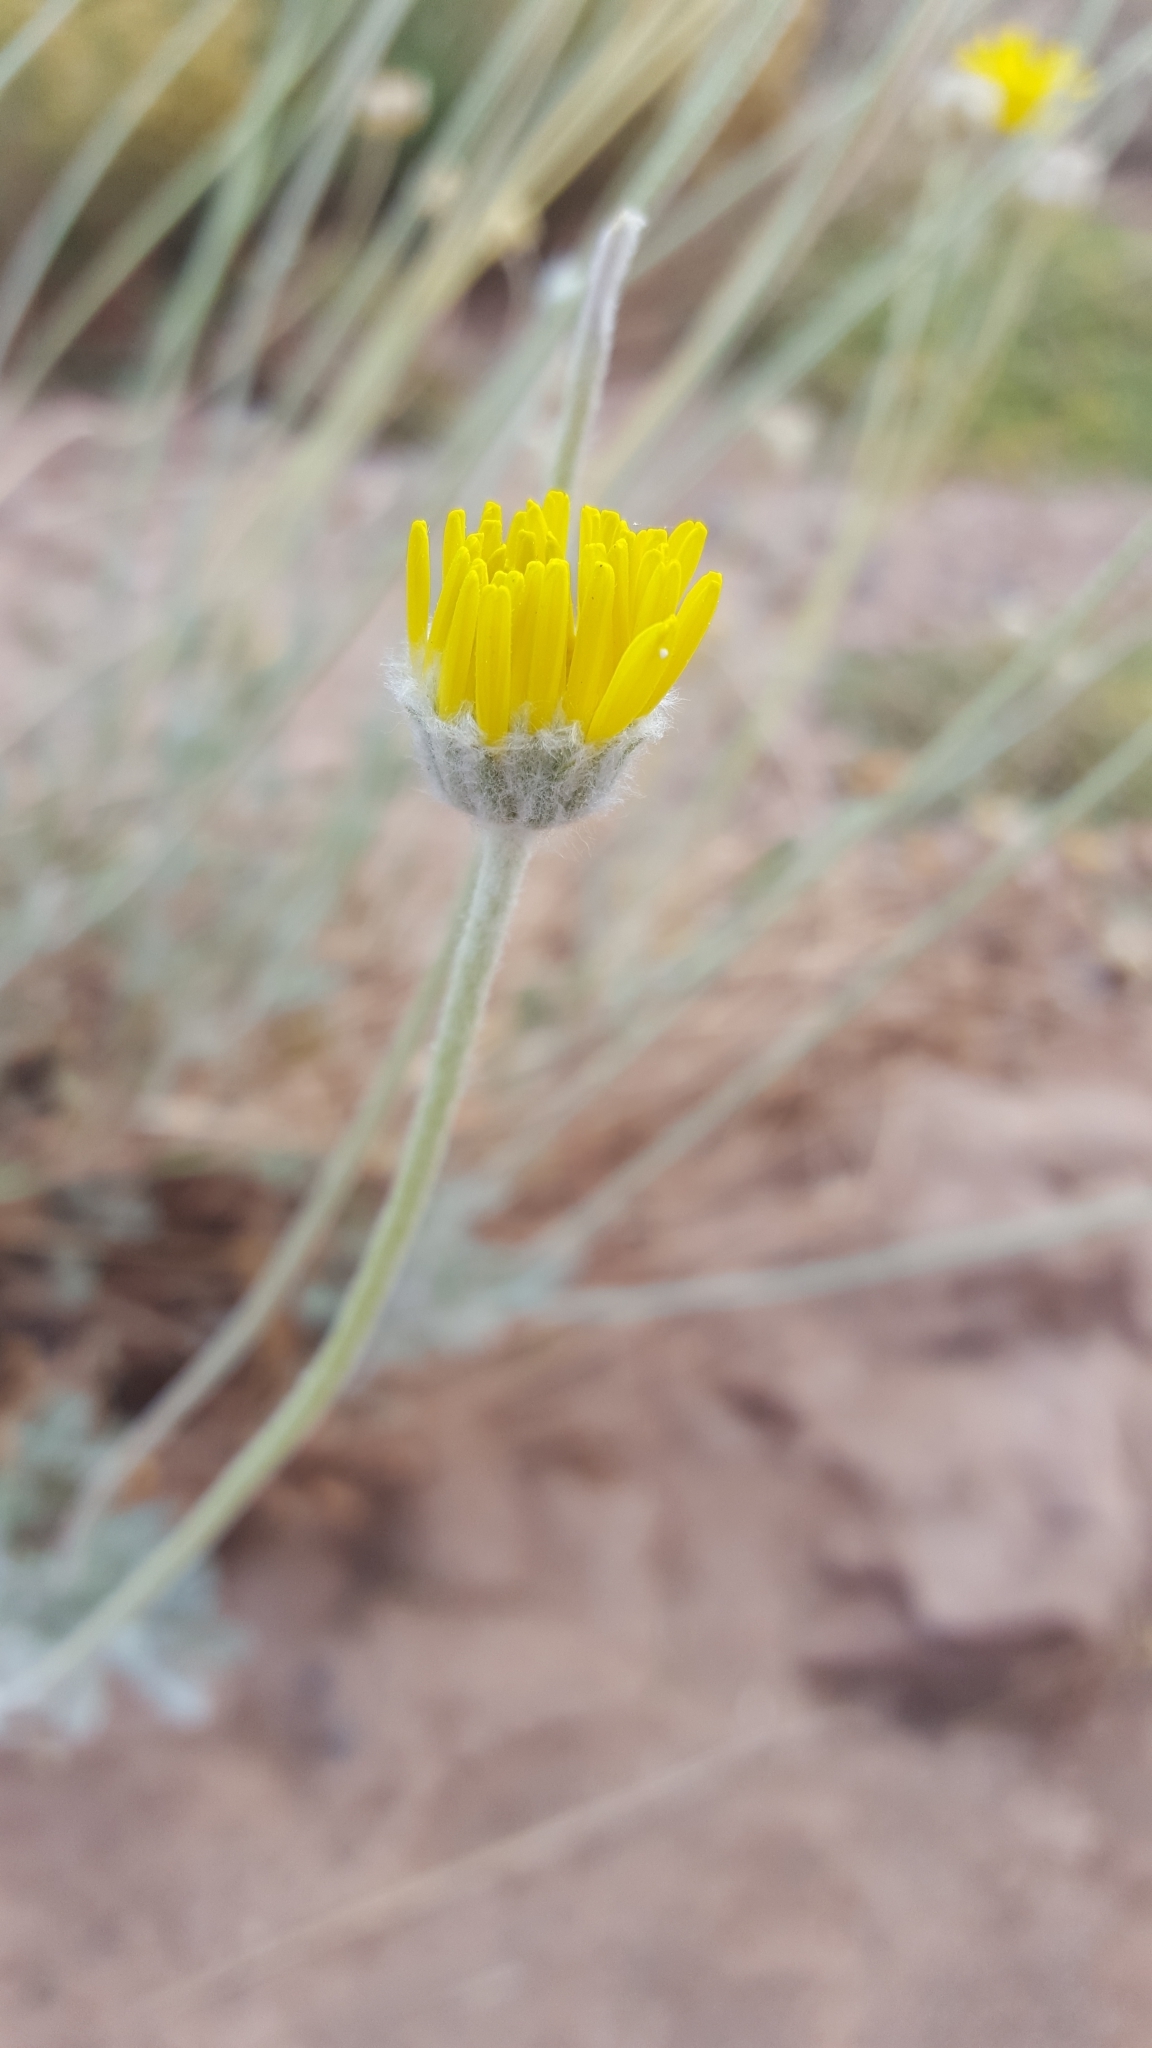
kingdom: Plantae
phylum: Tracheophyta
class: Magnoliopsida
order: Asterales
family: Asteraceae
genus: Baileya
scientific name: Baileya multiradiata
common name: Desert-marigold
